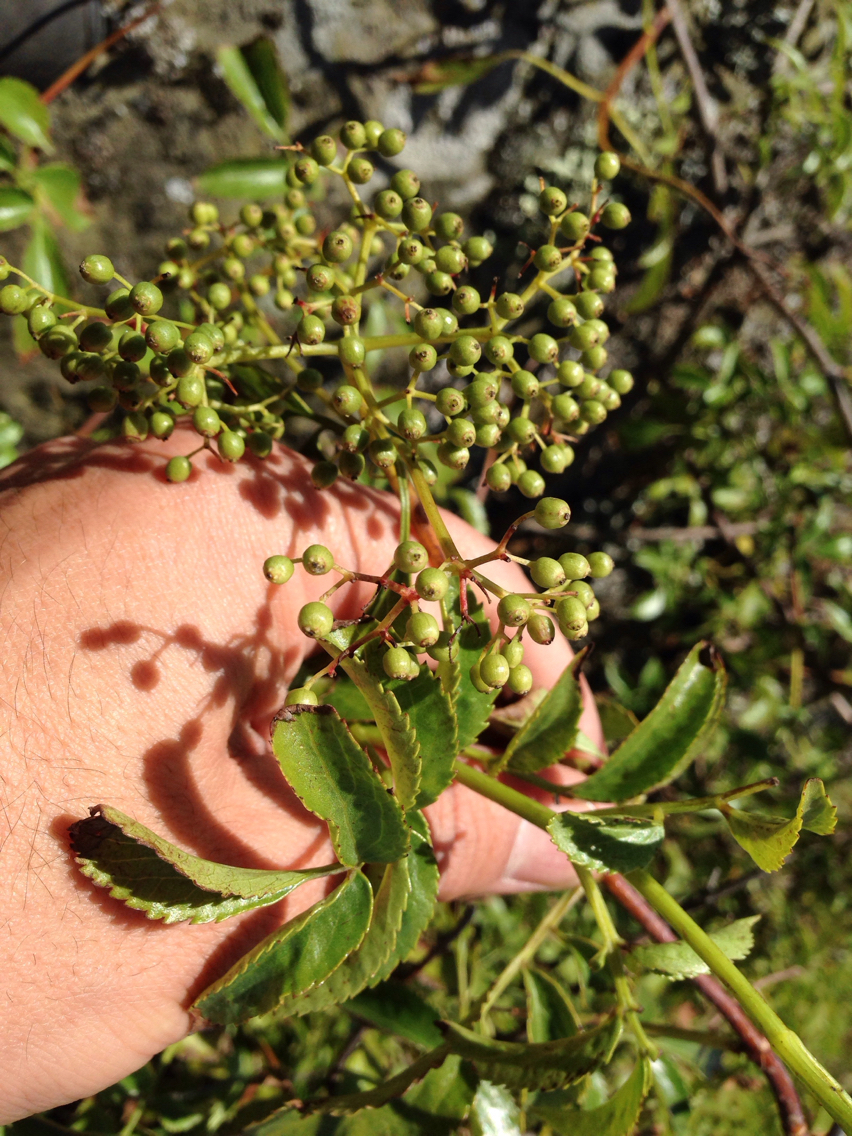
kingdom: Plantae
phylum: Tracheophyta
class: Magnoliopsida
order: Dipsacales
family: Viburnaceae
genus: Sambucus
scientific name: Sambucus cerulea
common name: Blue elder
